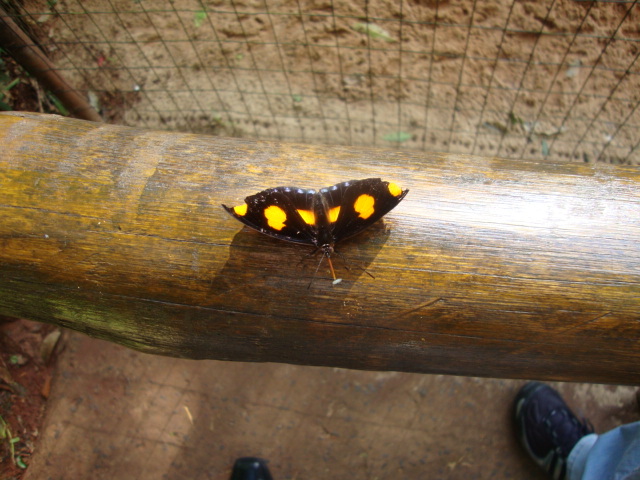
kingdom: Animalia
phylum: Arthropoda
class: Insecta
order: Lepidoptera
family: Nymphalidae
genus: Catonephele
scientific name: Catonephele numilia
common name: Blue-frosted banner
